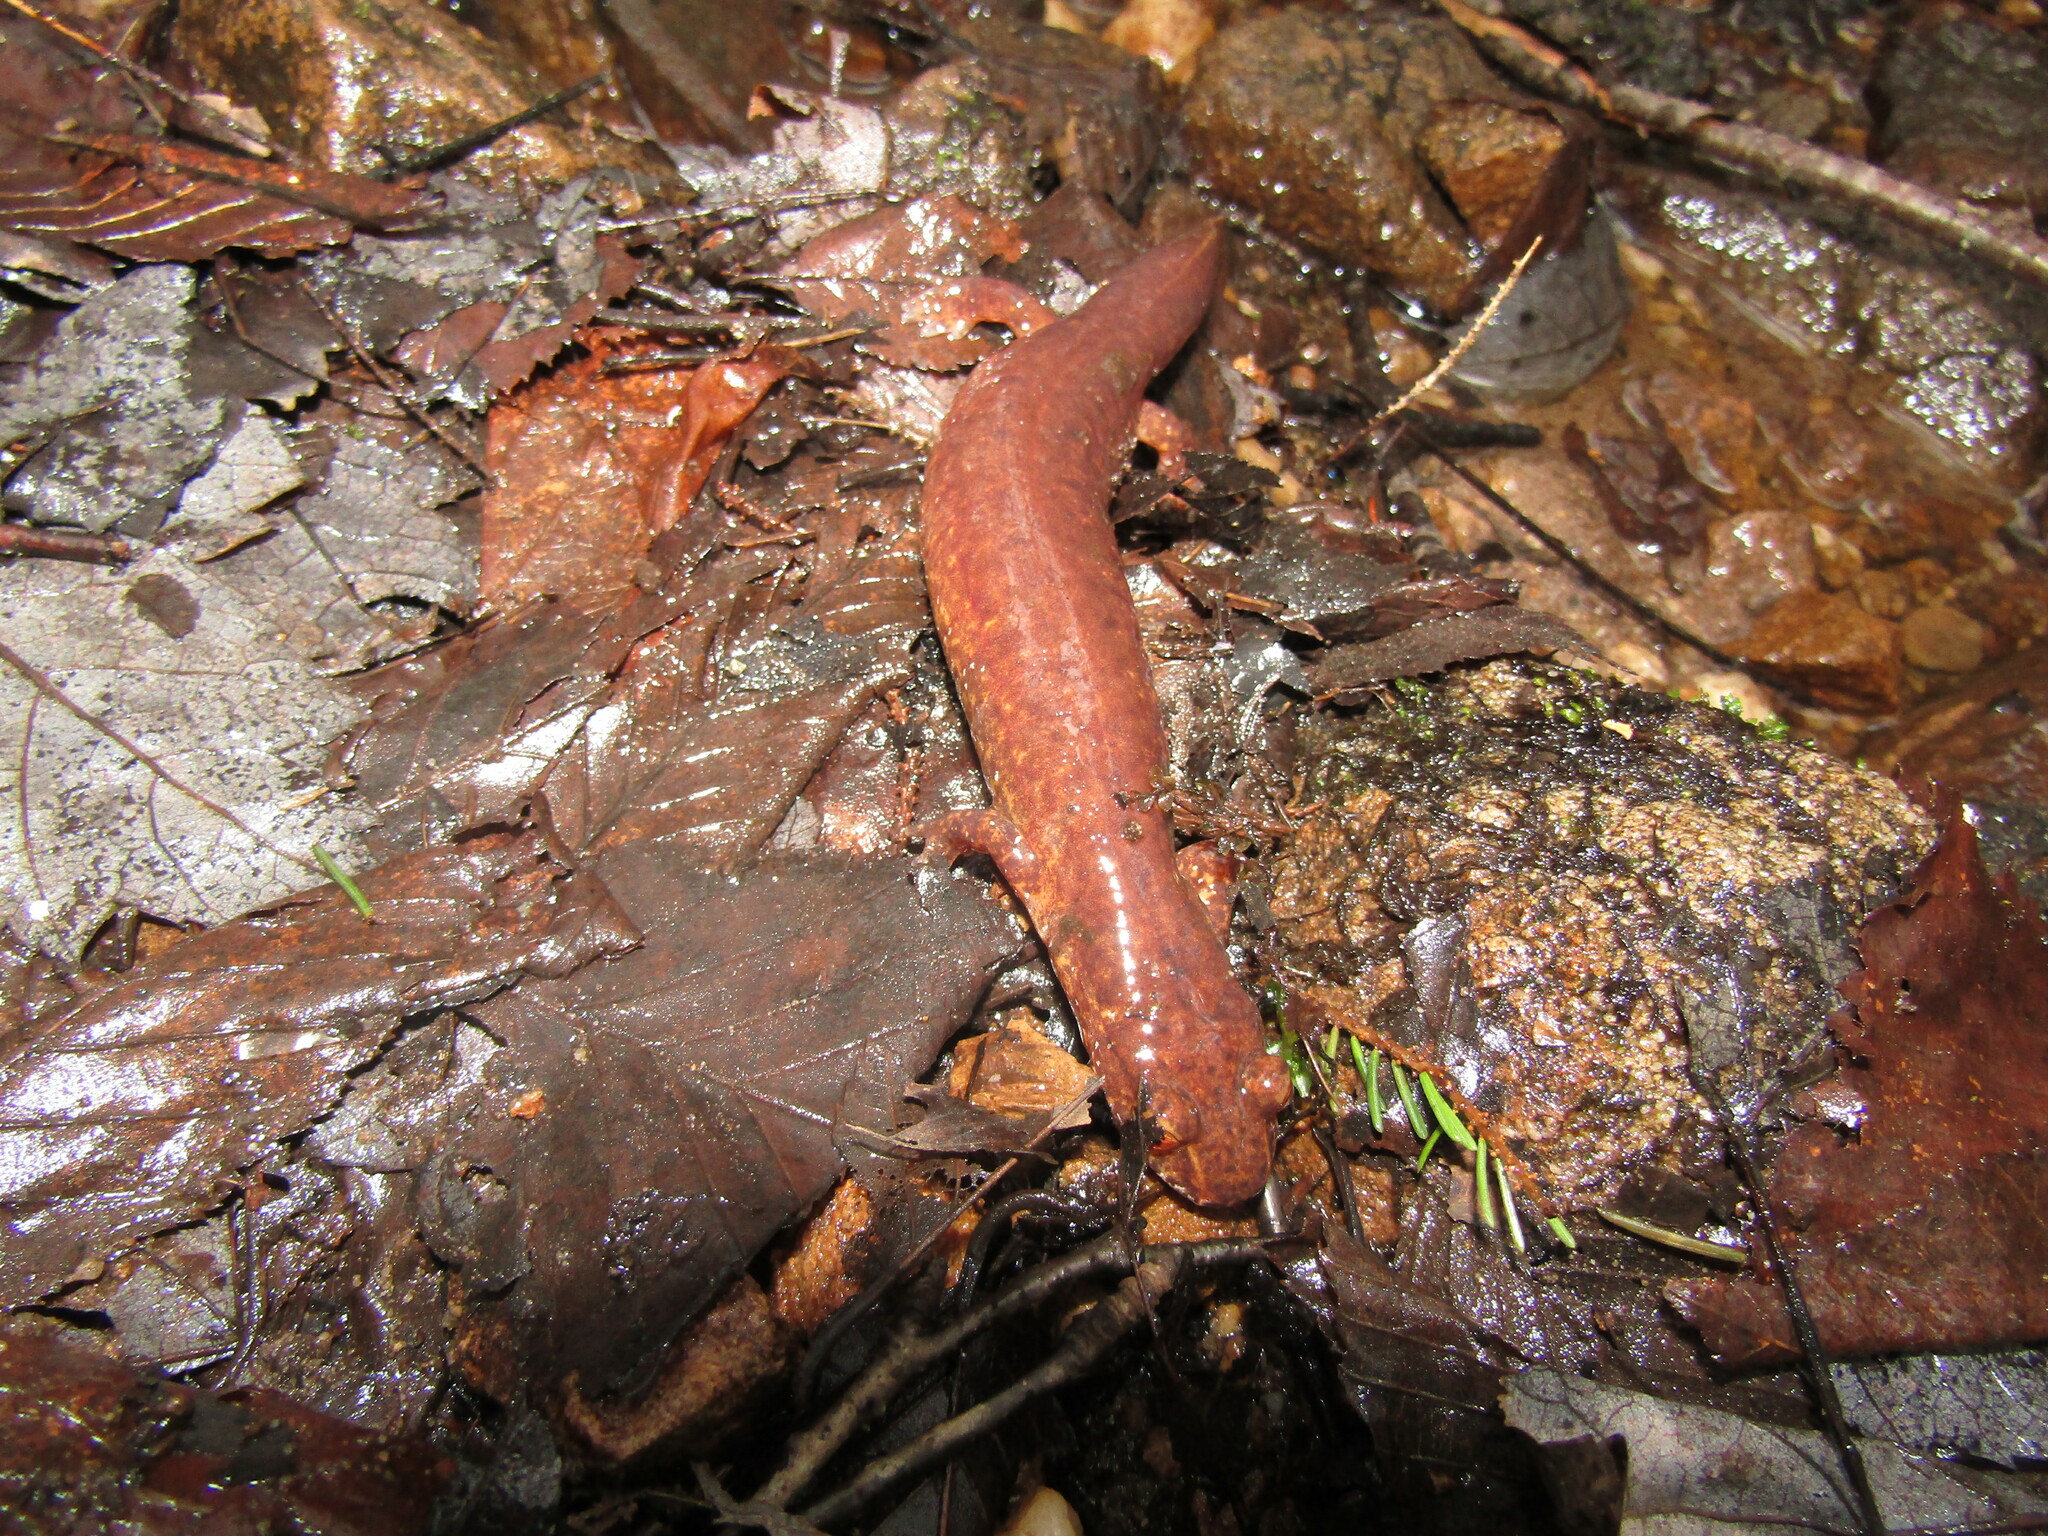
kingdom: Animalia
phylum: Chordata
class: Amphibia
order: Caudata
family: Plethodontidae
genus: Gyrinophilus
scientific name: Gyrinophilus porphyriticus
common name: Spring salamander
